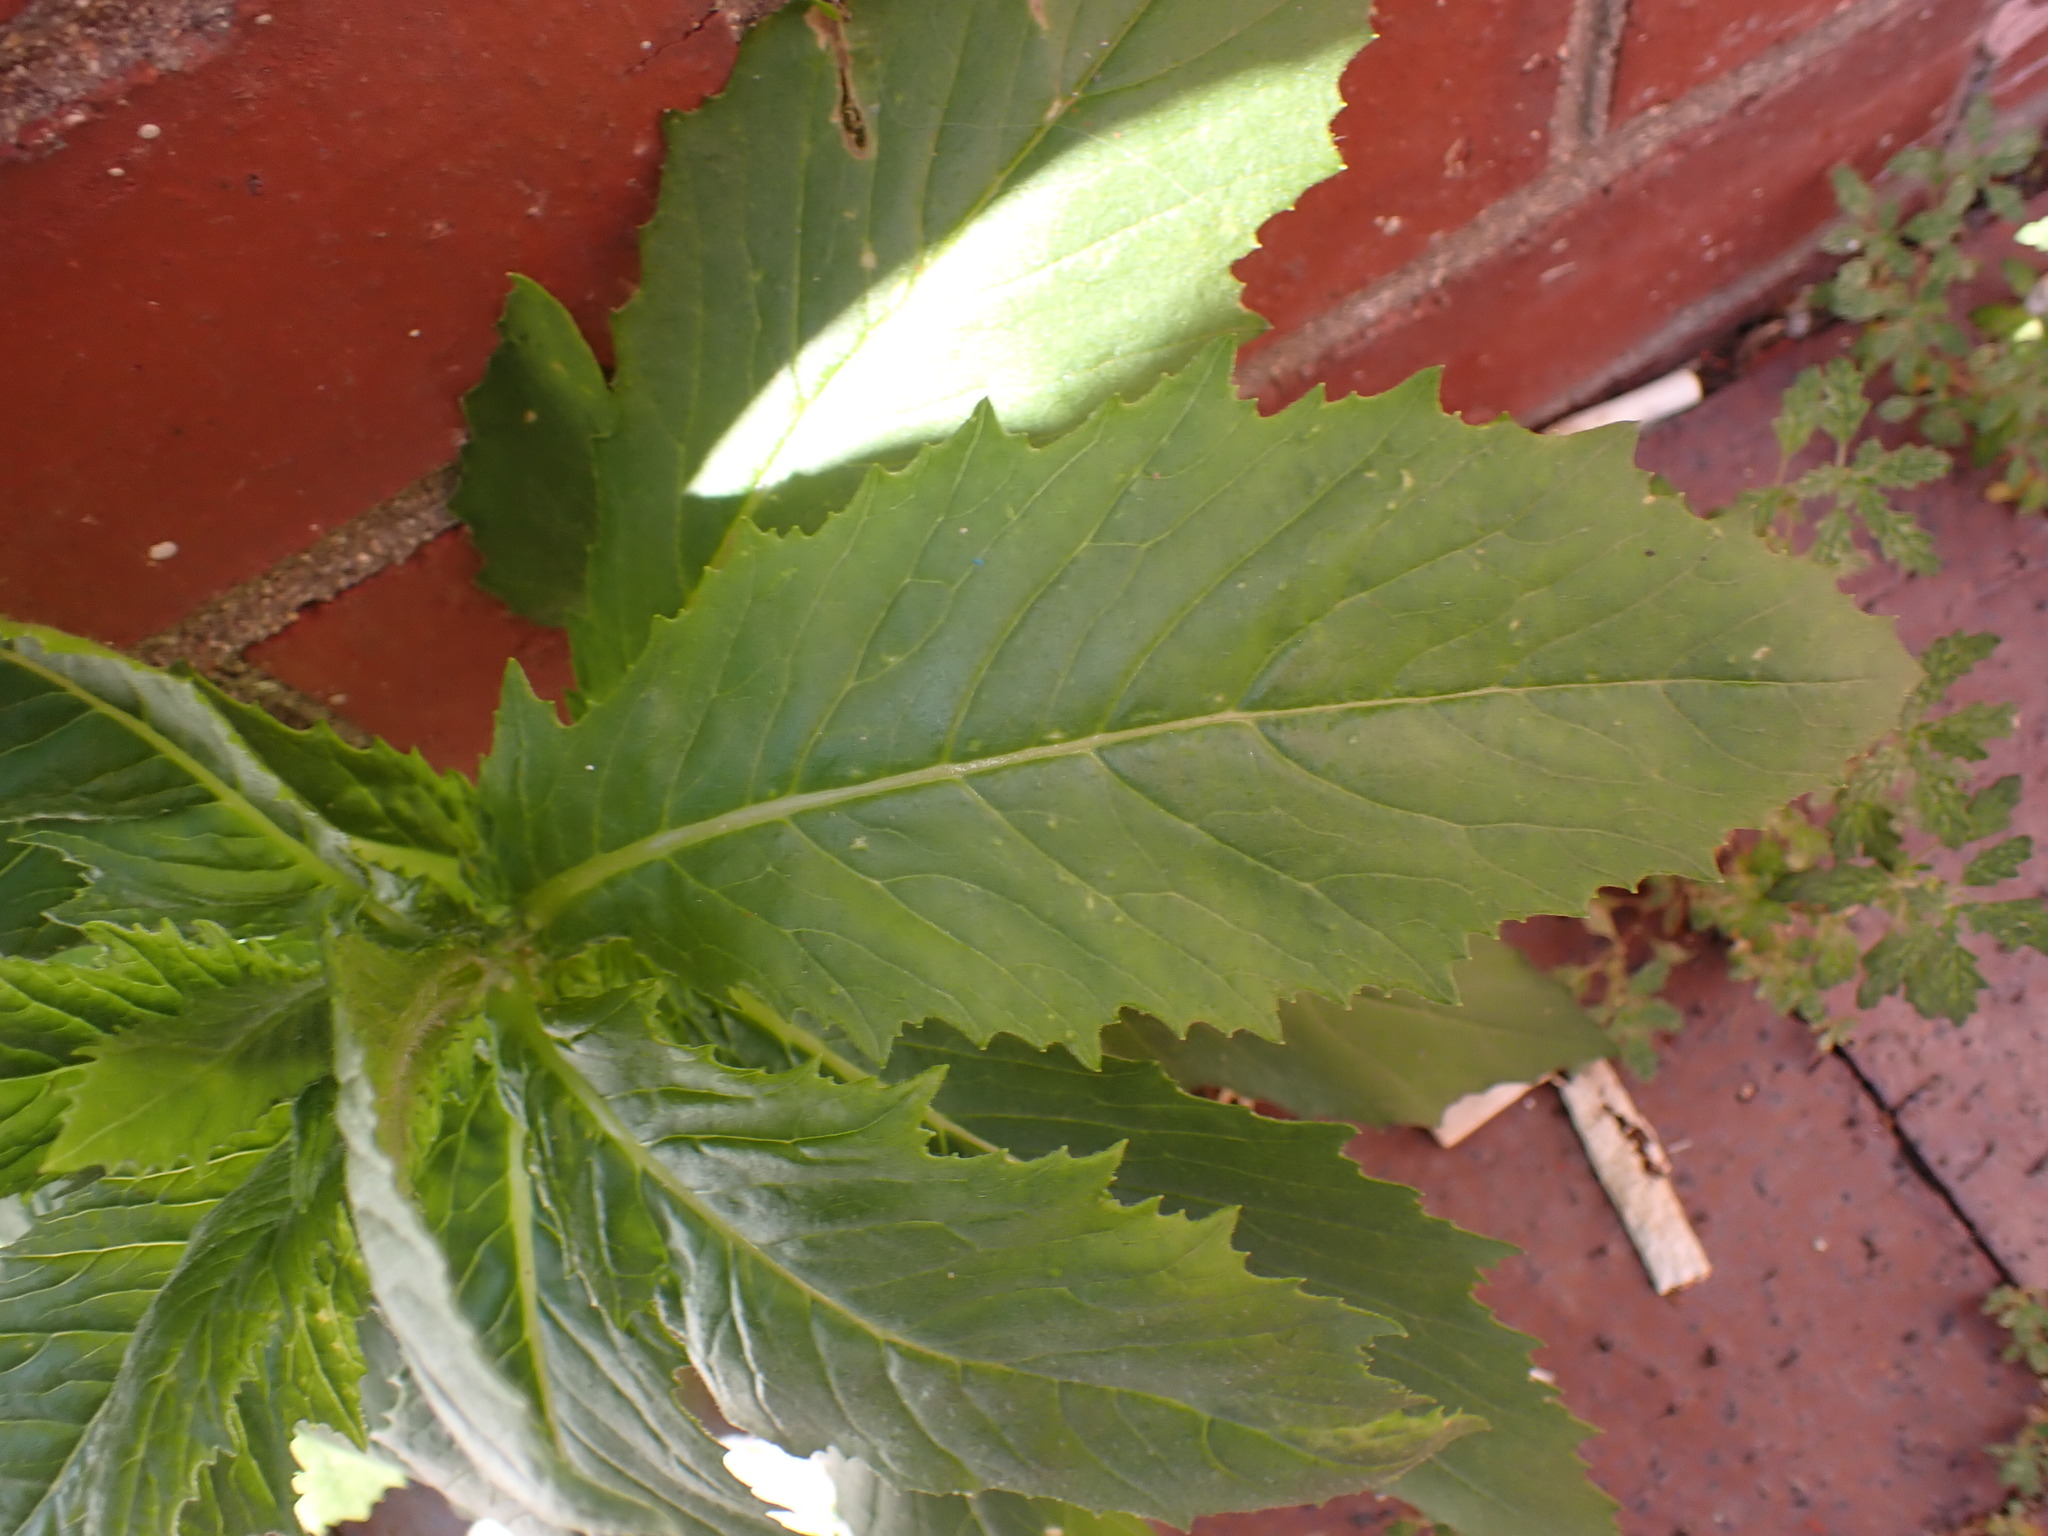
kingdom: Plantae
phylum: Tracheophyta
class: Magnoliopsida
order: Asterales
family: Asteraceae
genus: Erechtites
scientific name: Erechtites hieraciifolius
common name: American burnweed
